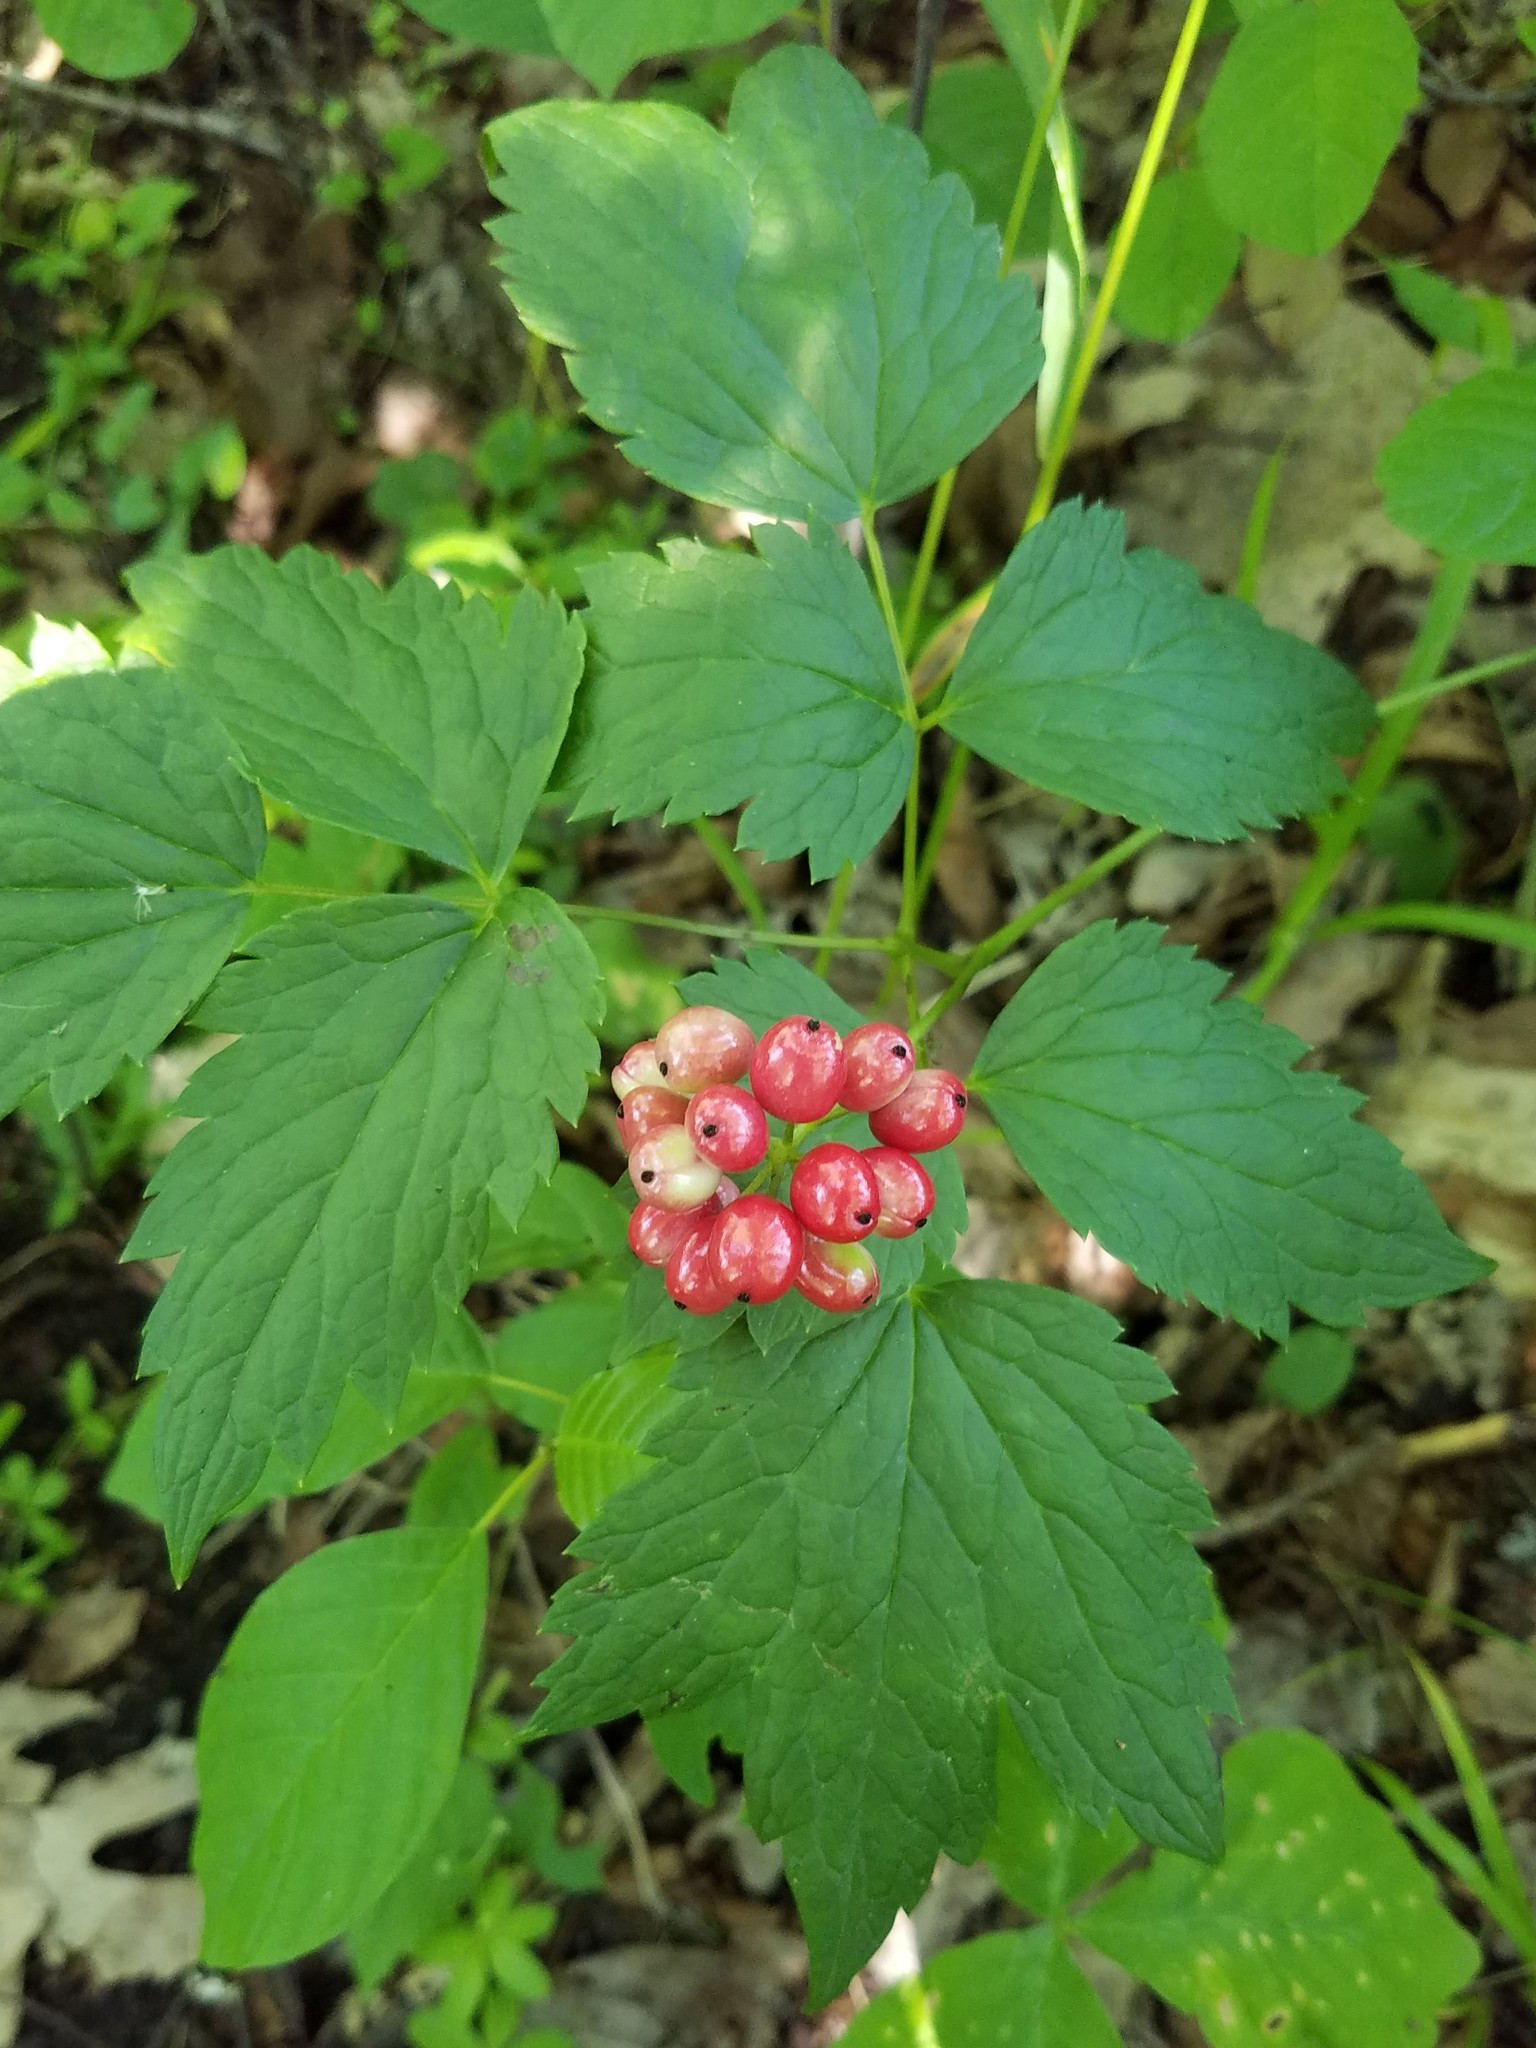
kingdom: Plantae
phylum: Tracheophyta
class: Magnoliopsida
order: Ranunculales
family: Ranunculaceae
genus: Actaea
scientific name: Actaea rubra
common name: Red baneberry
